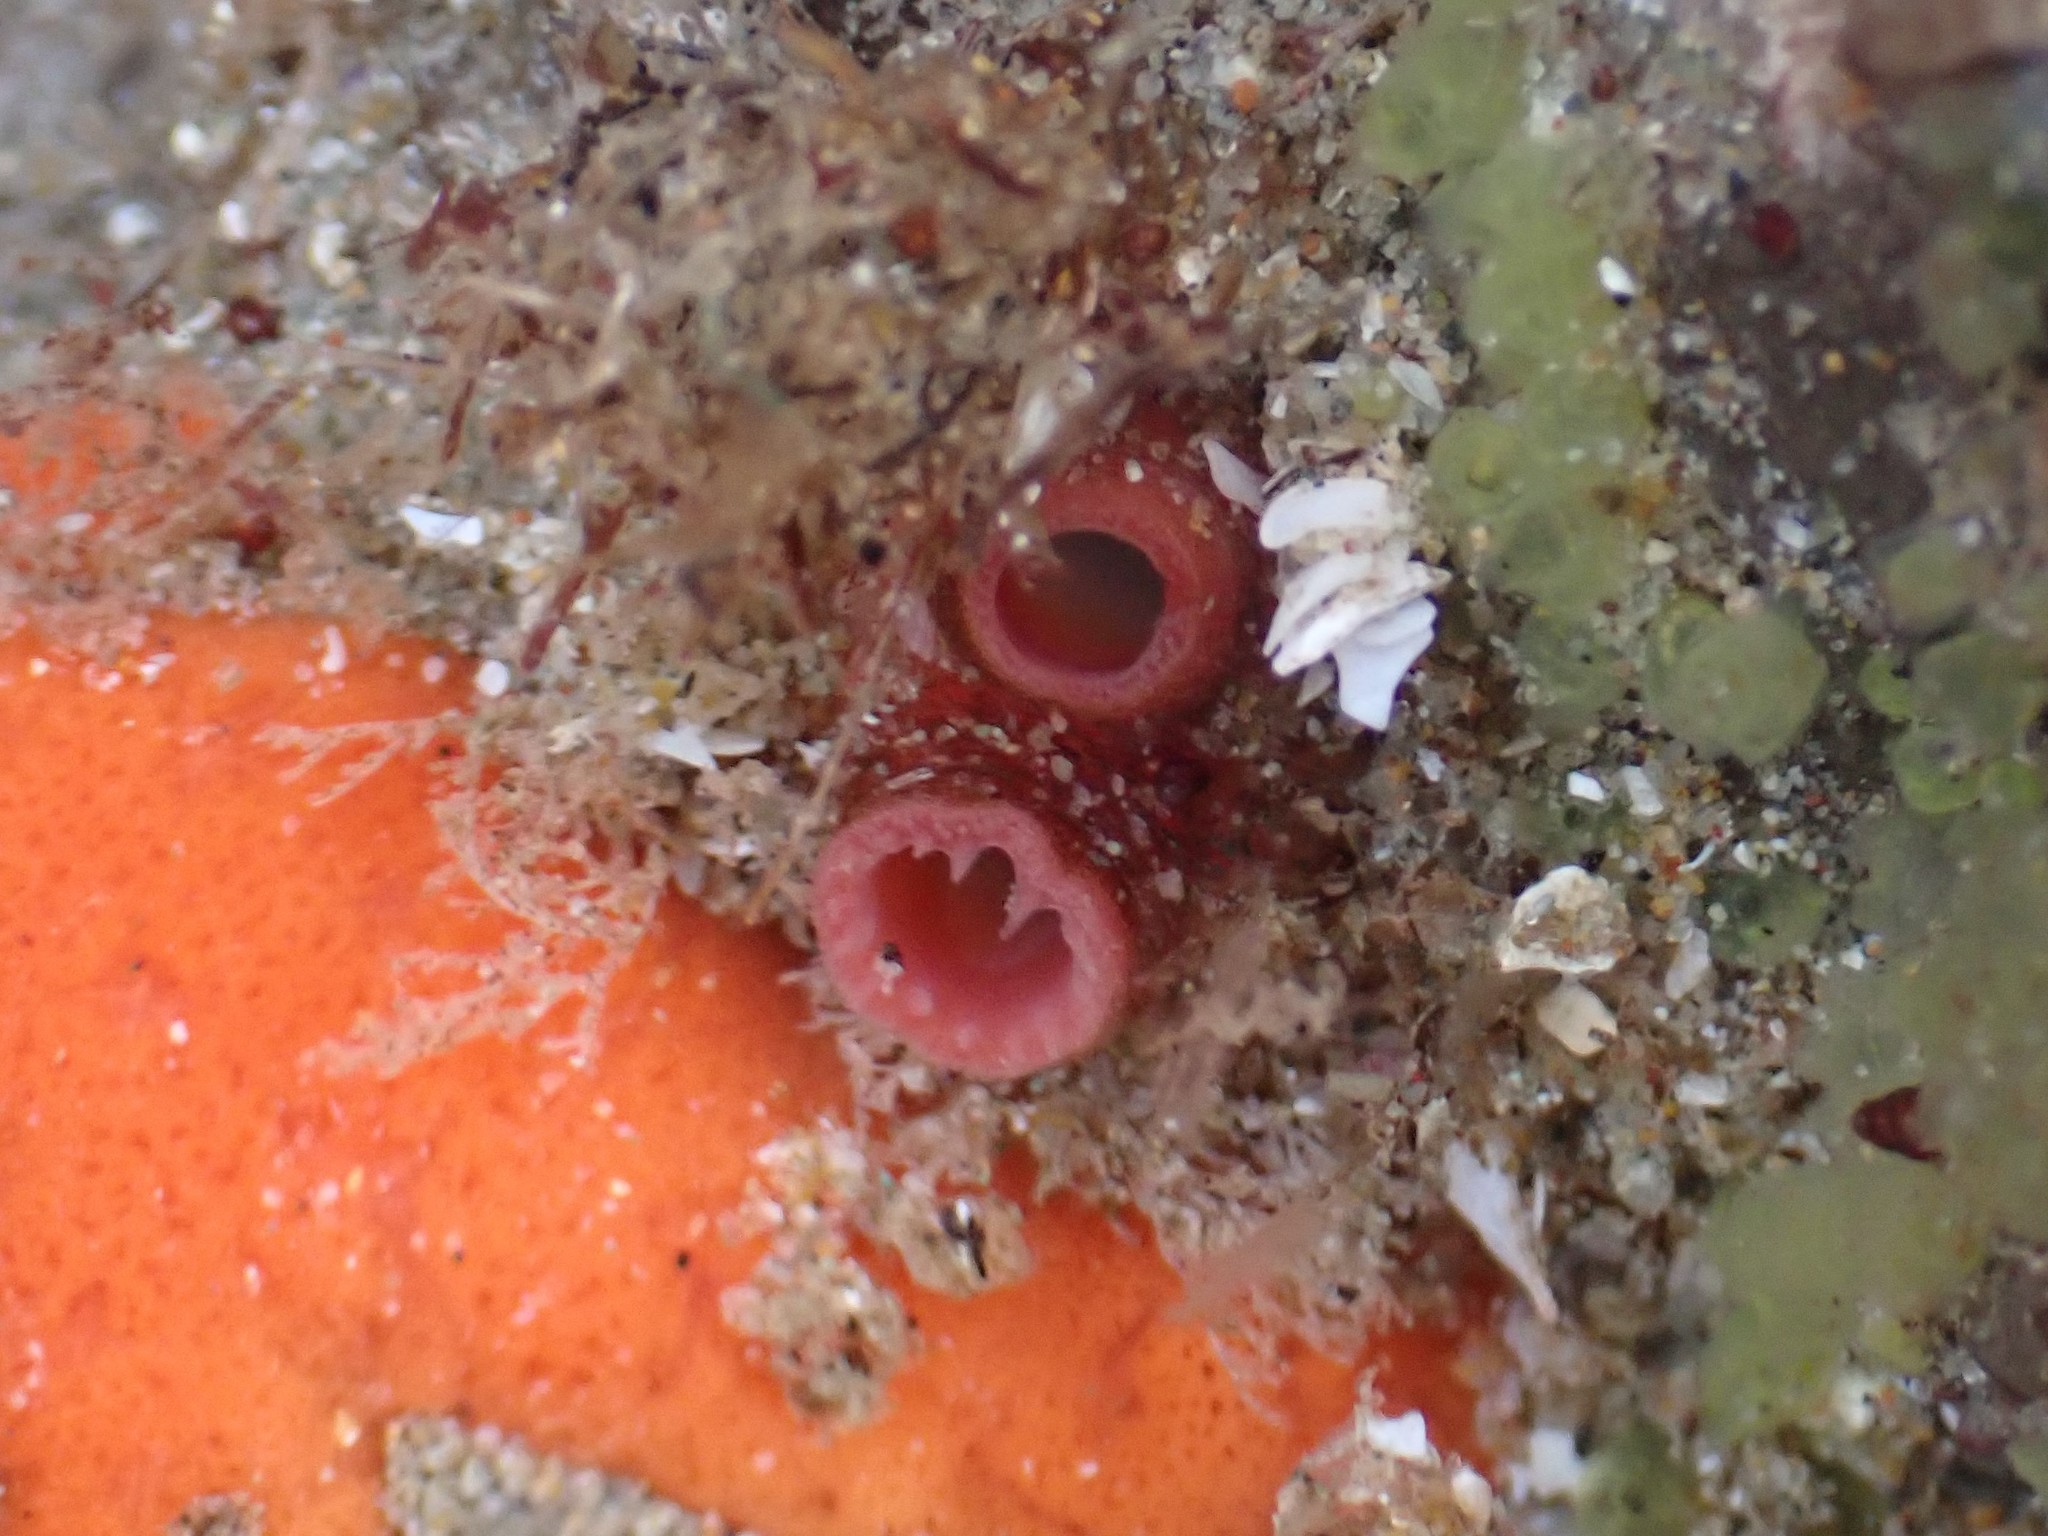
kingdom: Animalia
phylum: Mollusca
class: Bivalvia
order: Adapedonta
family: Hiatellidae
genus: Hiatella
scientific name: Hiatella arctica
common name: Arctic hiatella
